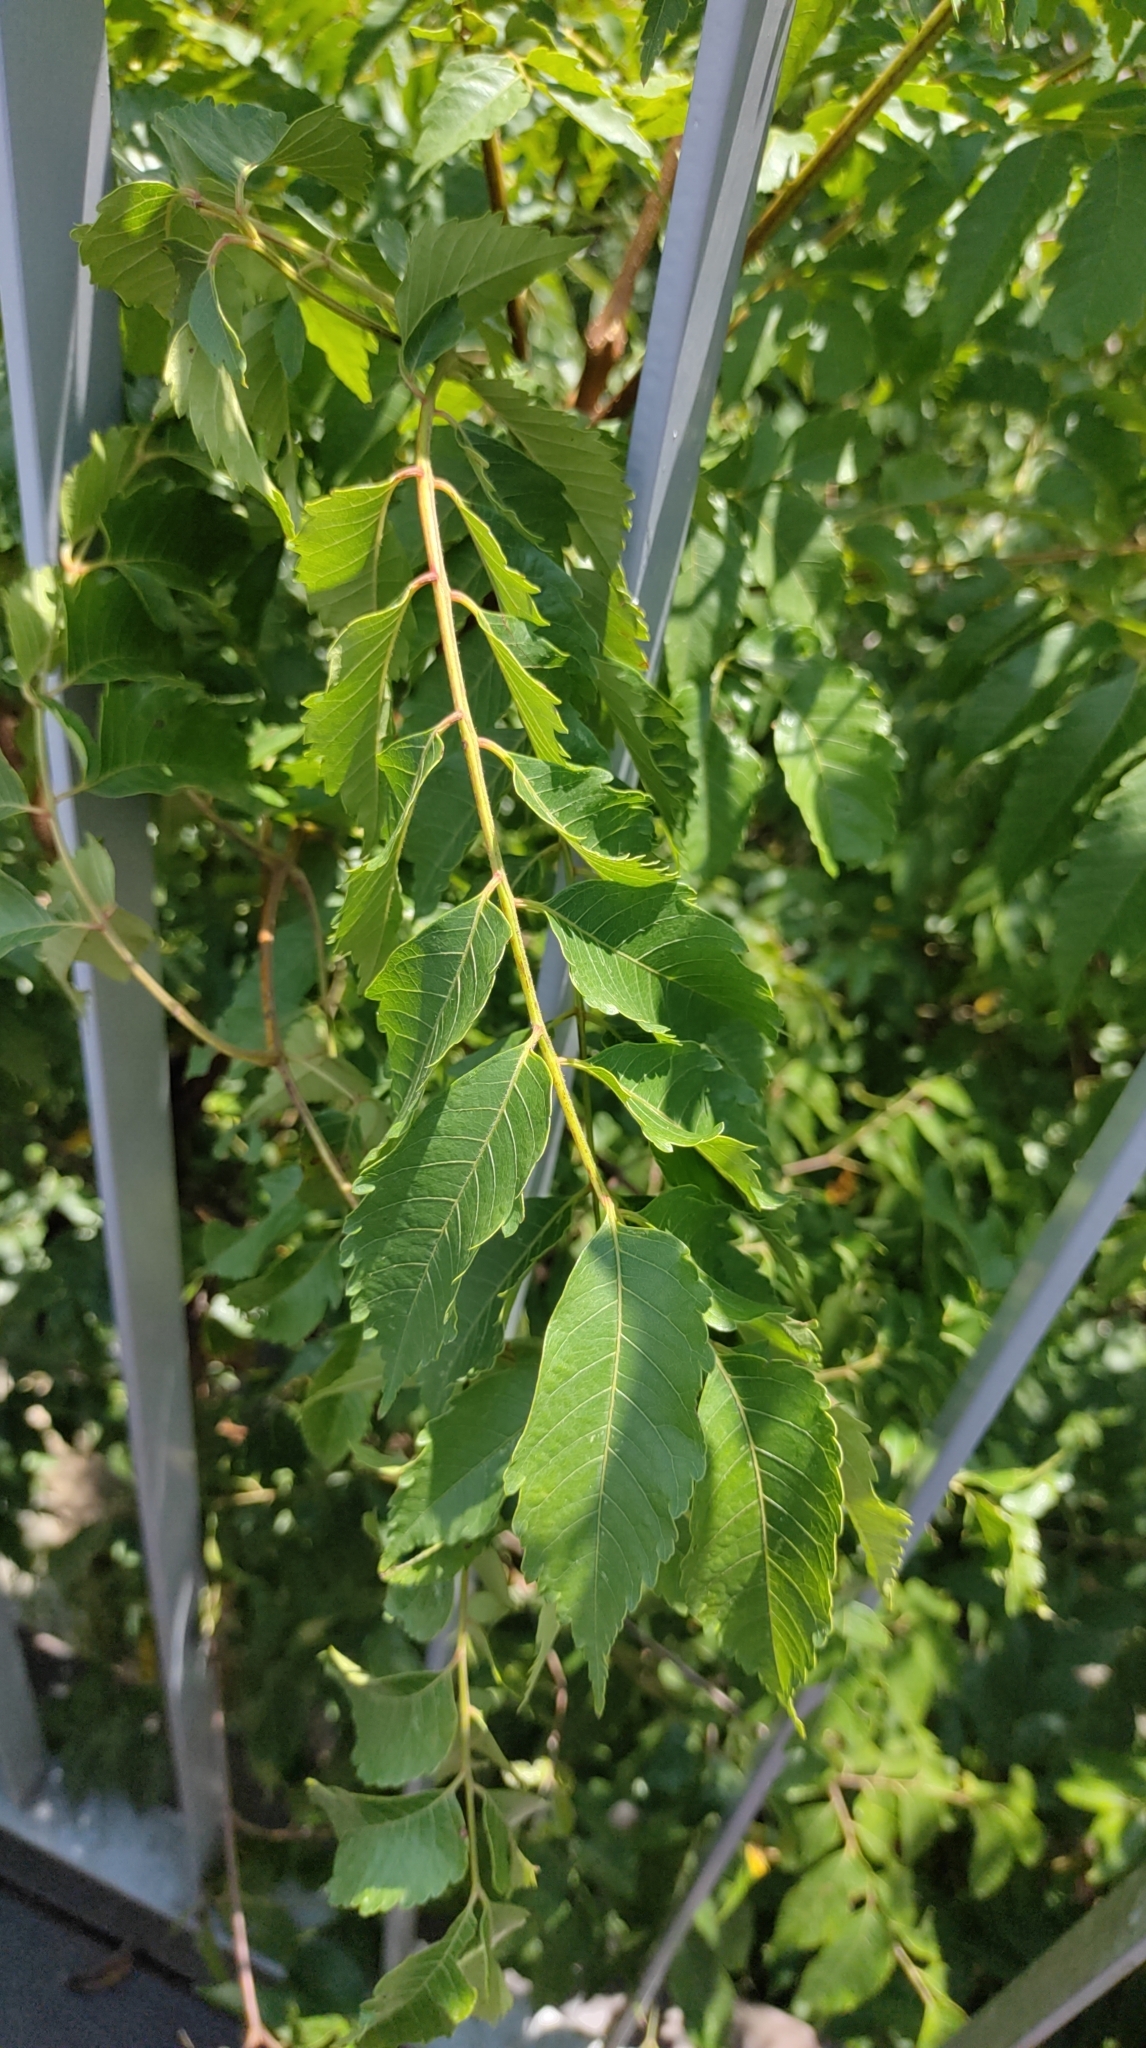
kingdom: Plantae
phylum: Tracheophyta
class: Magnoliopsida
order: Sapindales
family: Sapindaceae
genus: Koelreuteria
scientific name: Koelreuteria elegans
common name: Chinese flame tree
